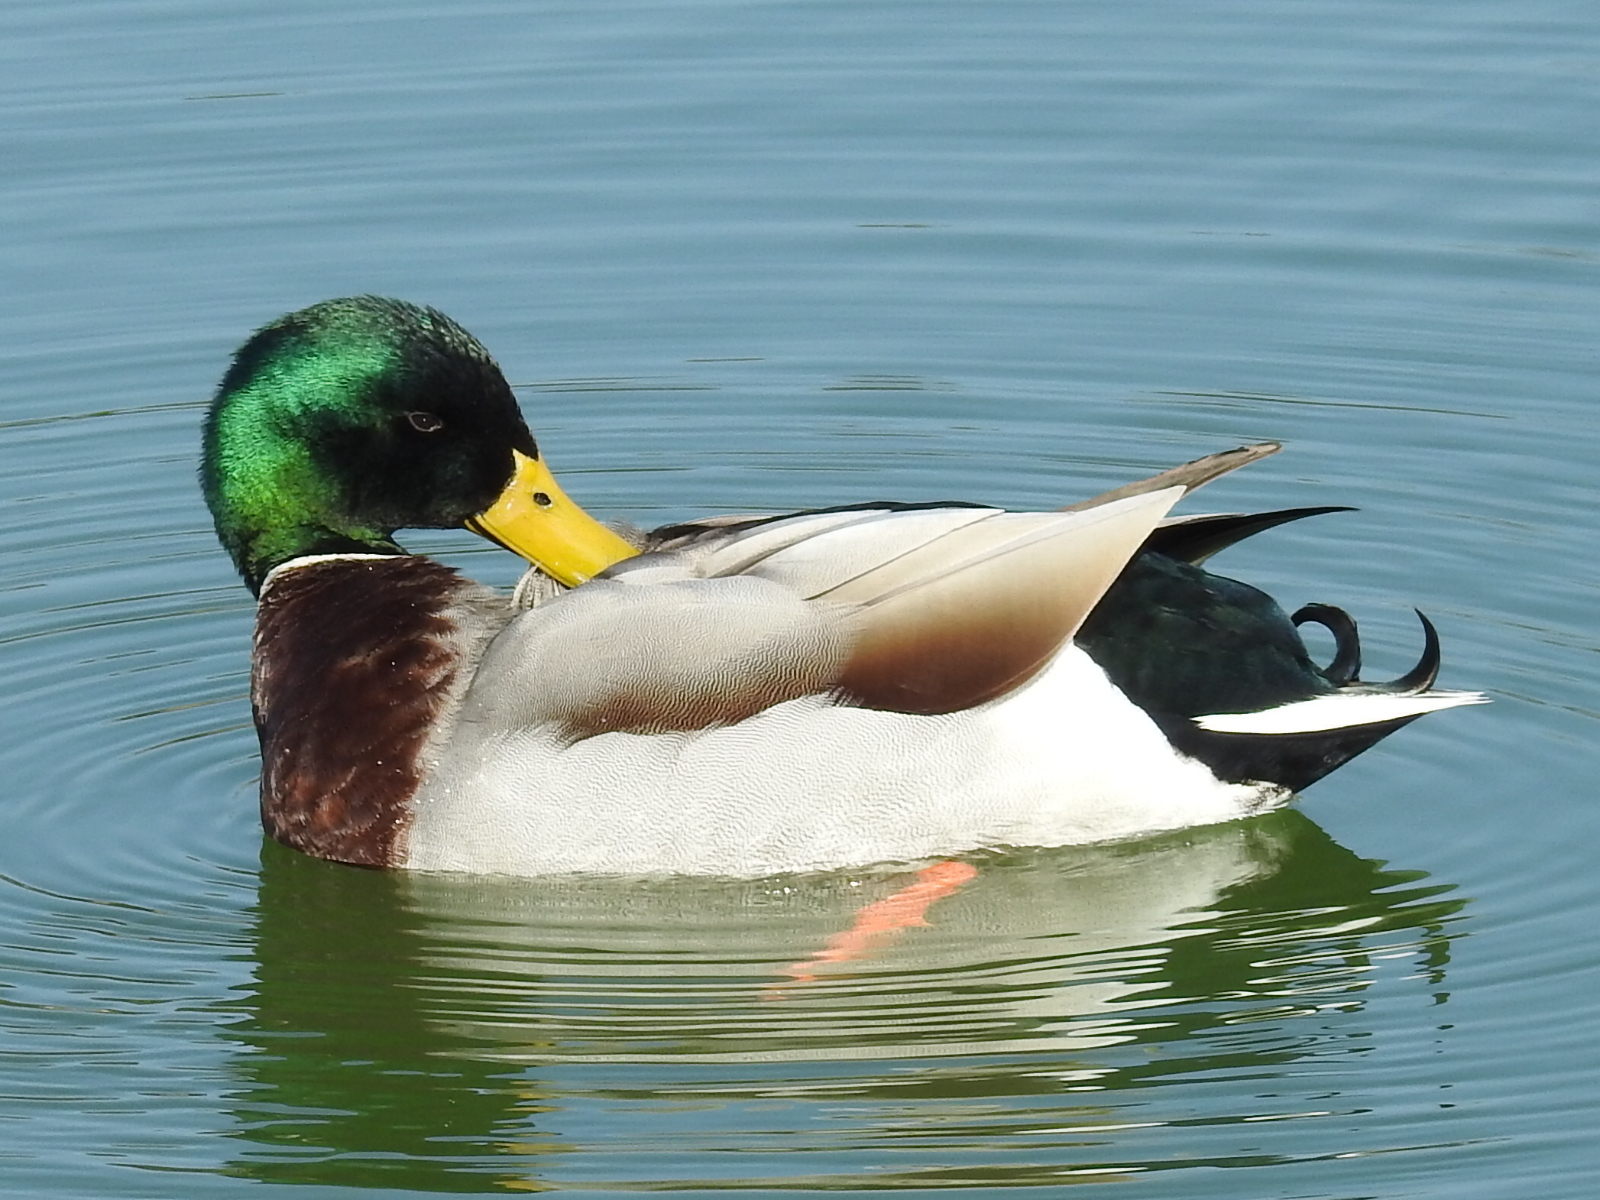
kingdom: Animalia
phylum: Chordata
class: Aves
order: Anseriformes
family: Anatidae
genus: Anas
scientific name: Anas platyrhynchos
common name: Mallard
